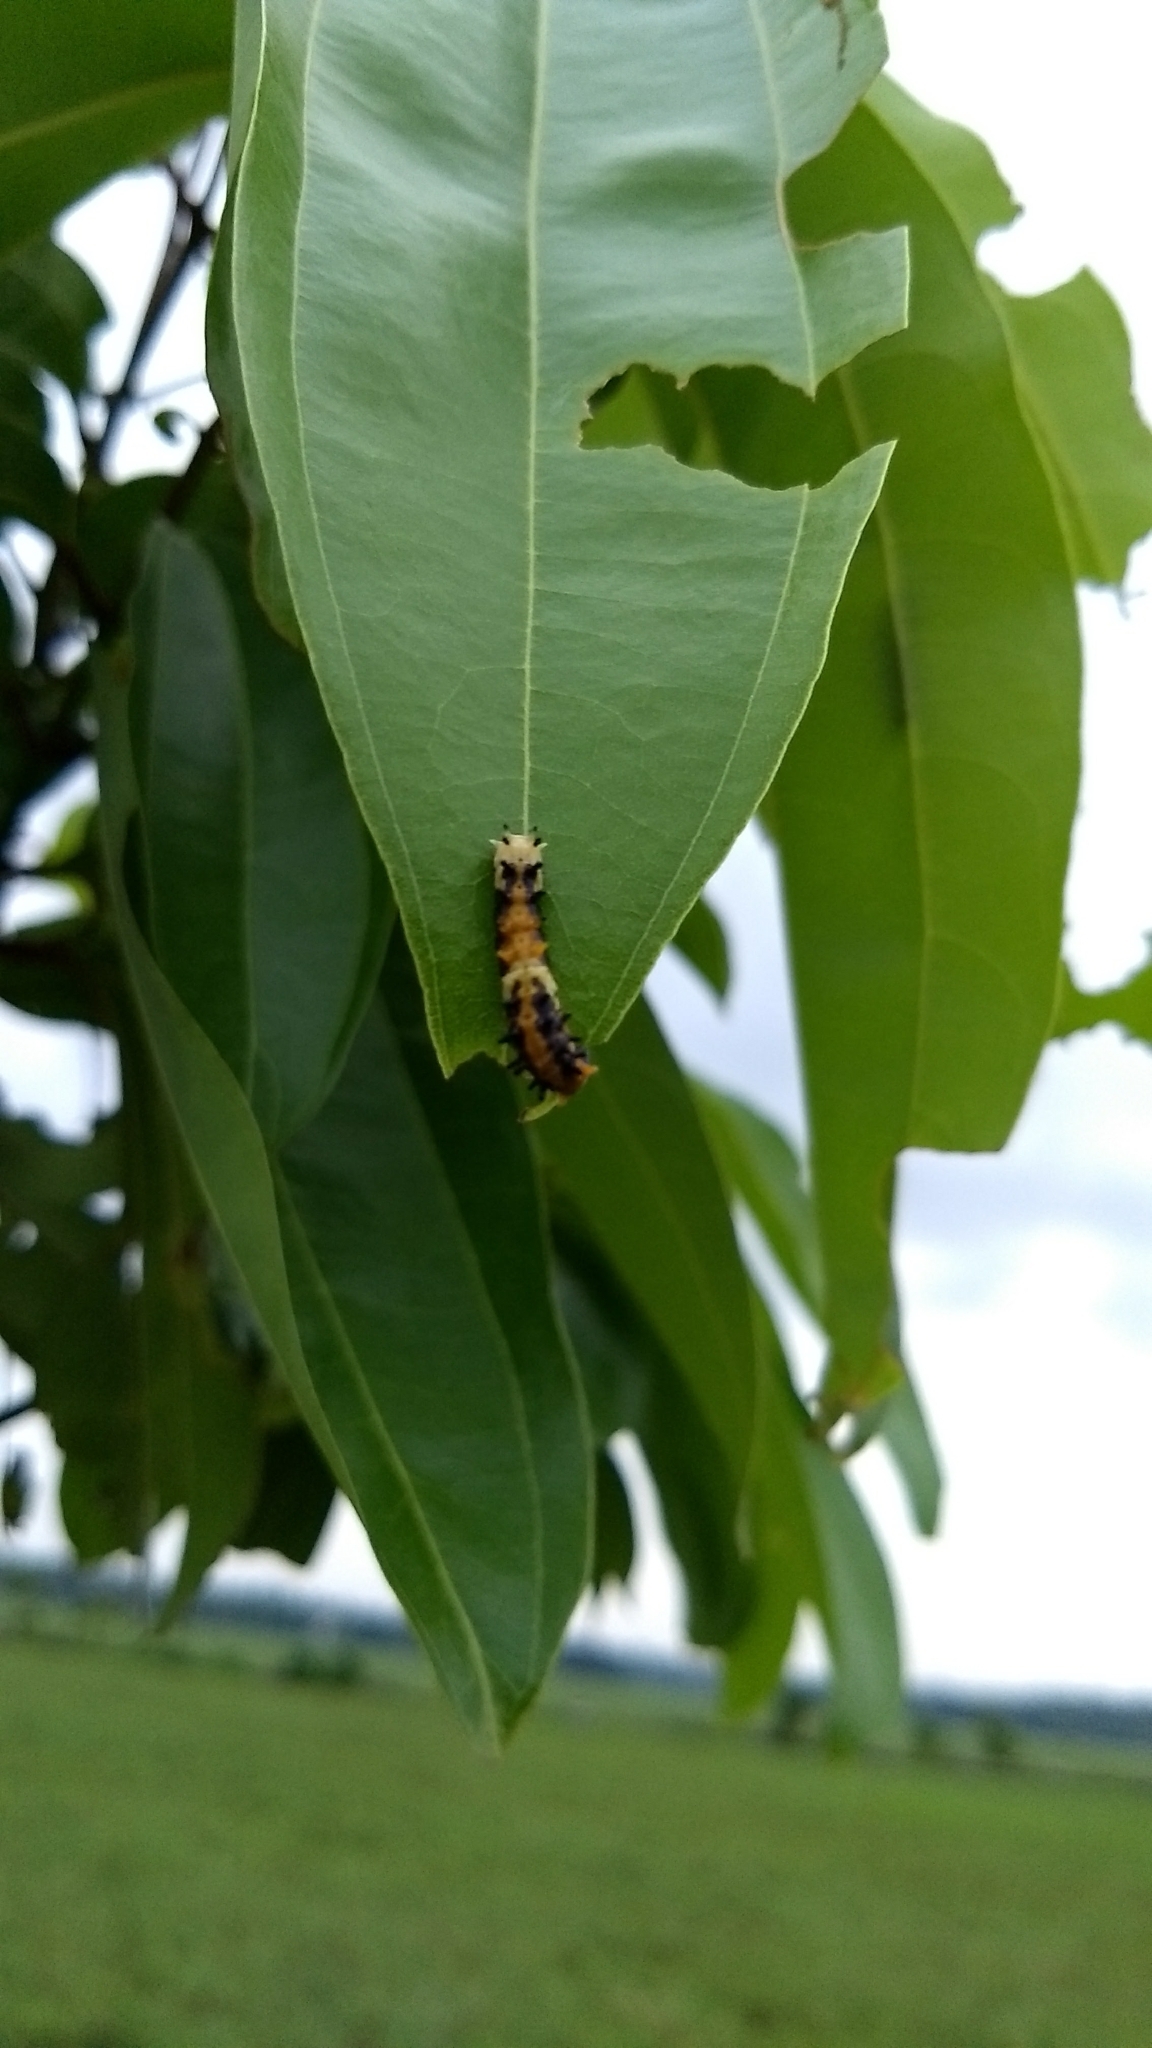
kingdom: Animalia
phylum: Arthropoda
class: Insecta
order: Lepidoptera
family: Papilionidae
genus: Chilasa
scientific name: Chilasa clytia
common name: Common mime
